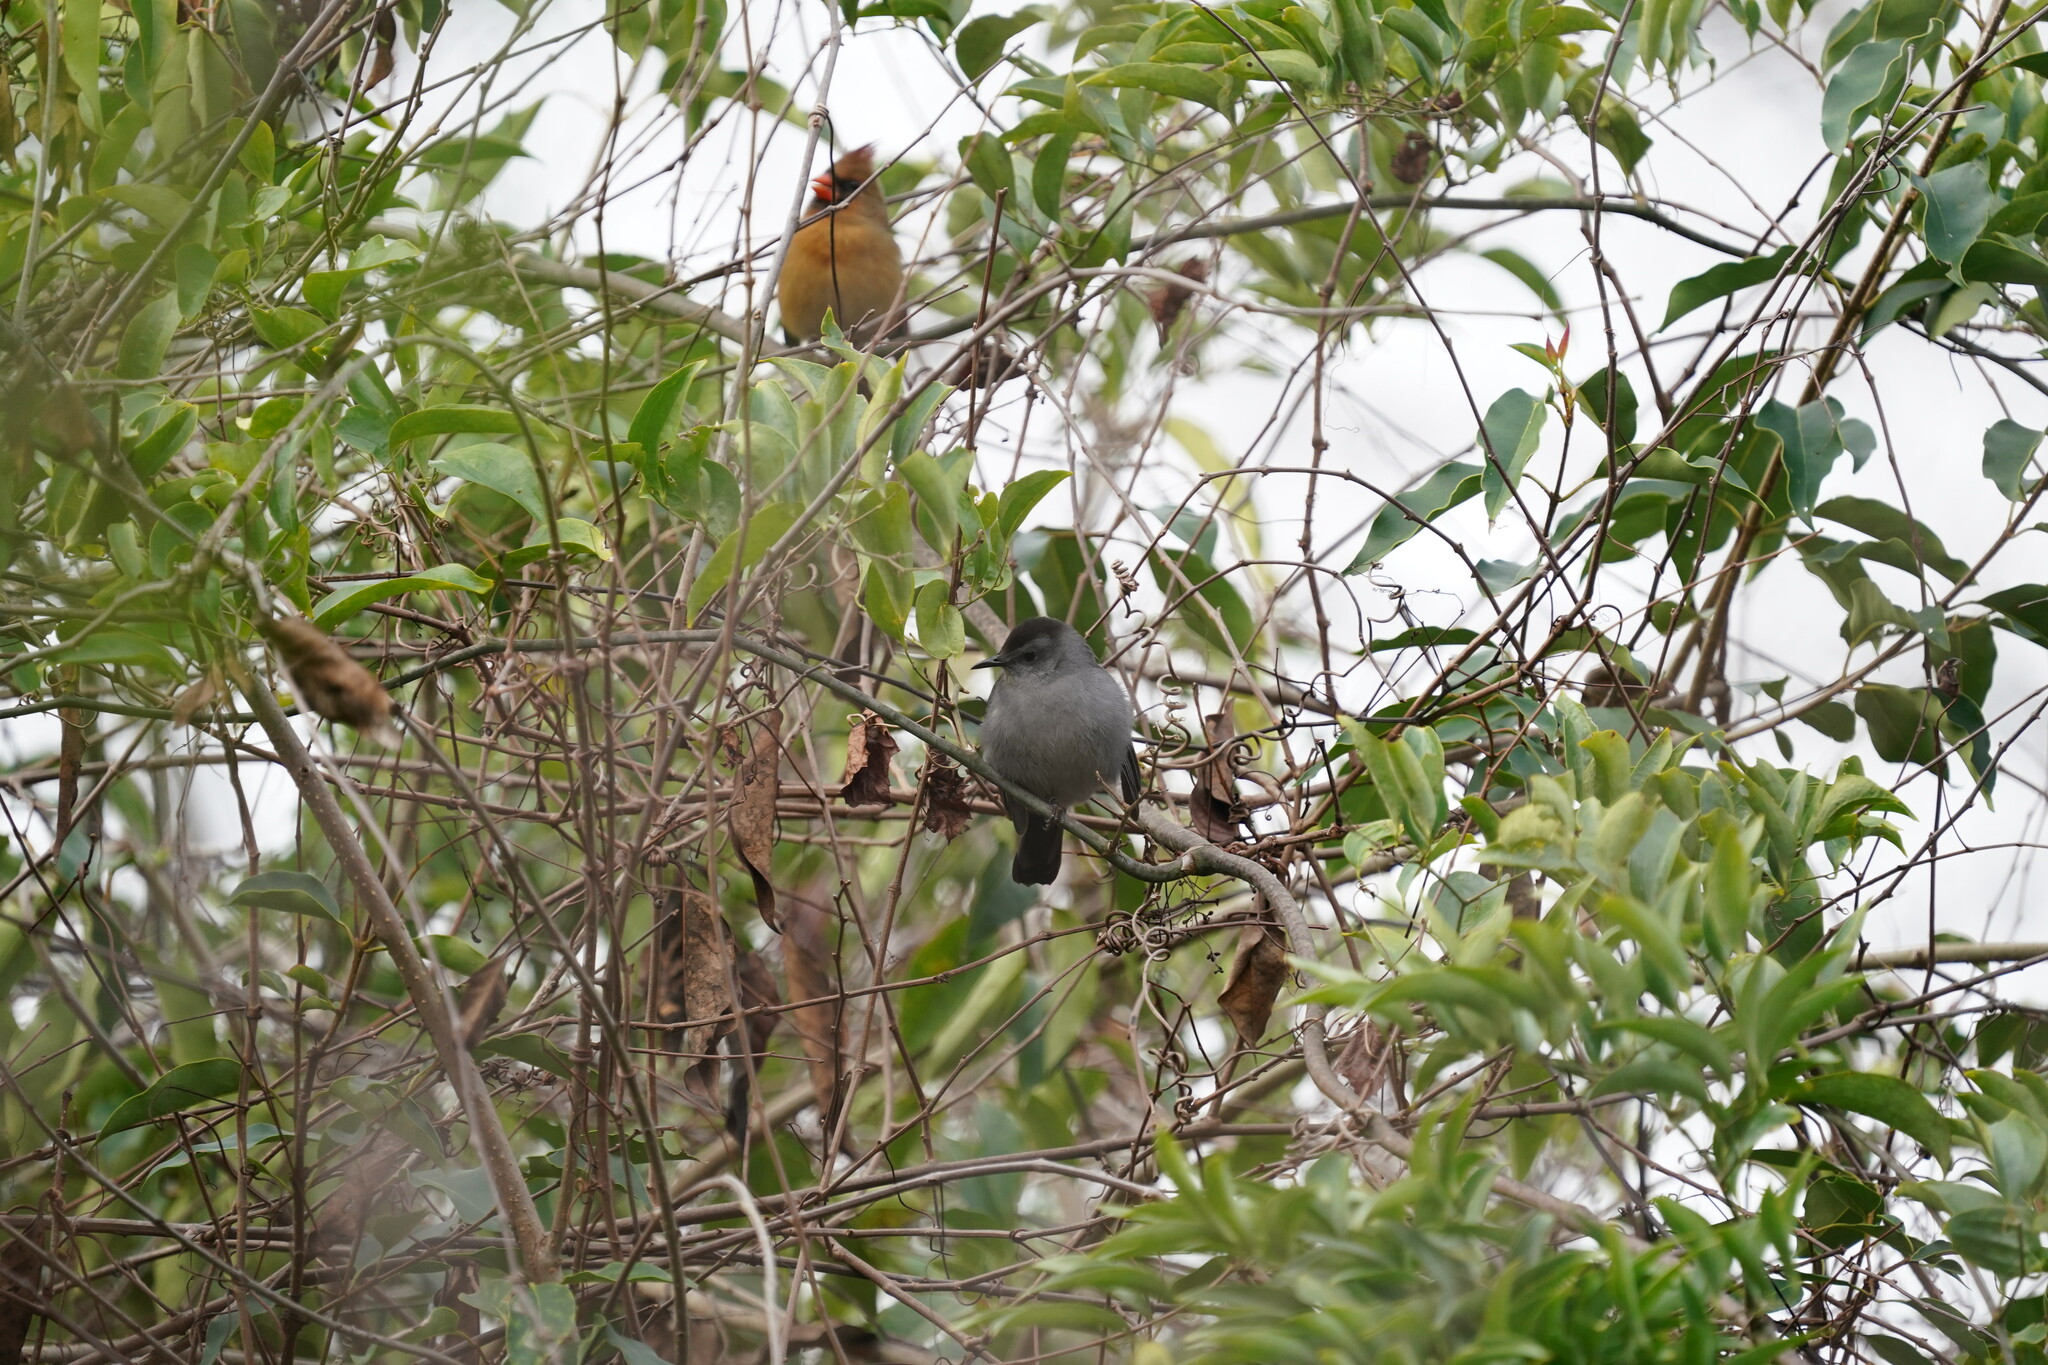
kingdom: Animalia
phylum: Chordata
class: Aves
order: Passeriformes
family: Mimidae
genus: Dumetella
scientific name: Dumetella carolinensis
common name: Gray catbird
